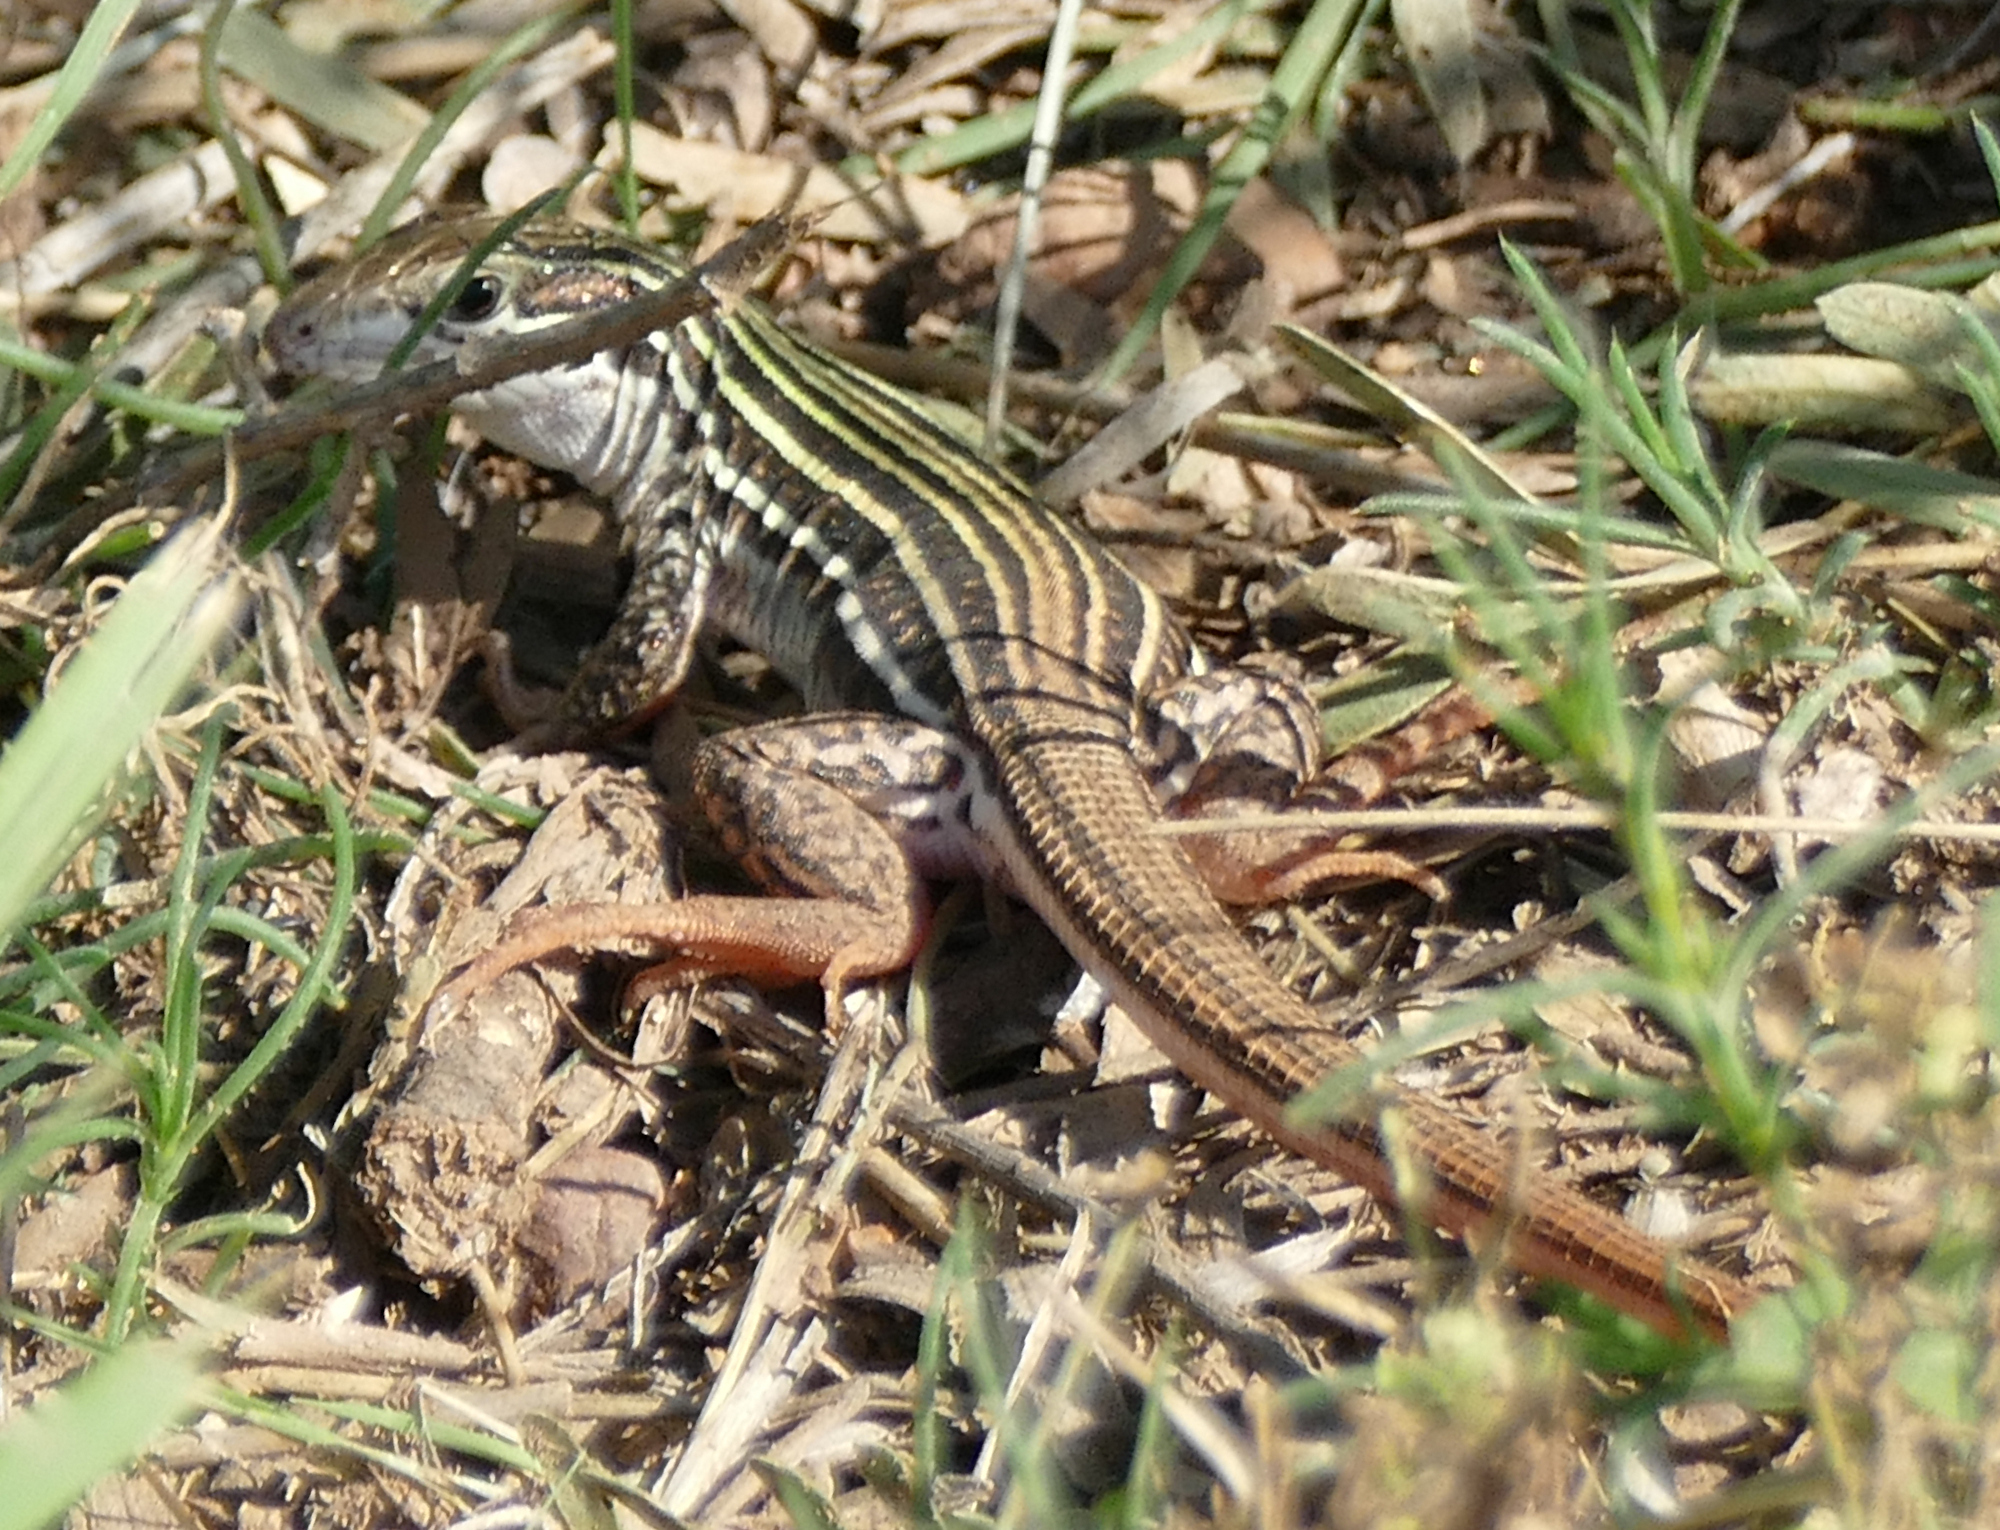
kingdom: Animalia
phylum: Chordata
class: Squamata
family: Teiidae
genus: Aspidoscelis
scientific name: Aspidoscelis gularis
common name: Eastern spotted whiptail
